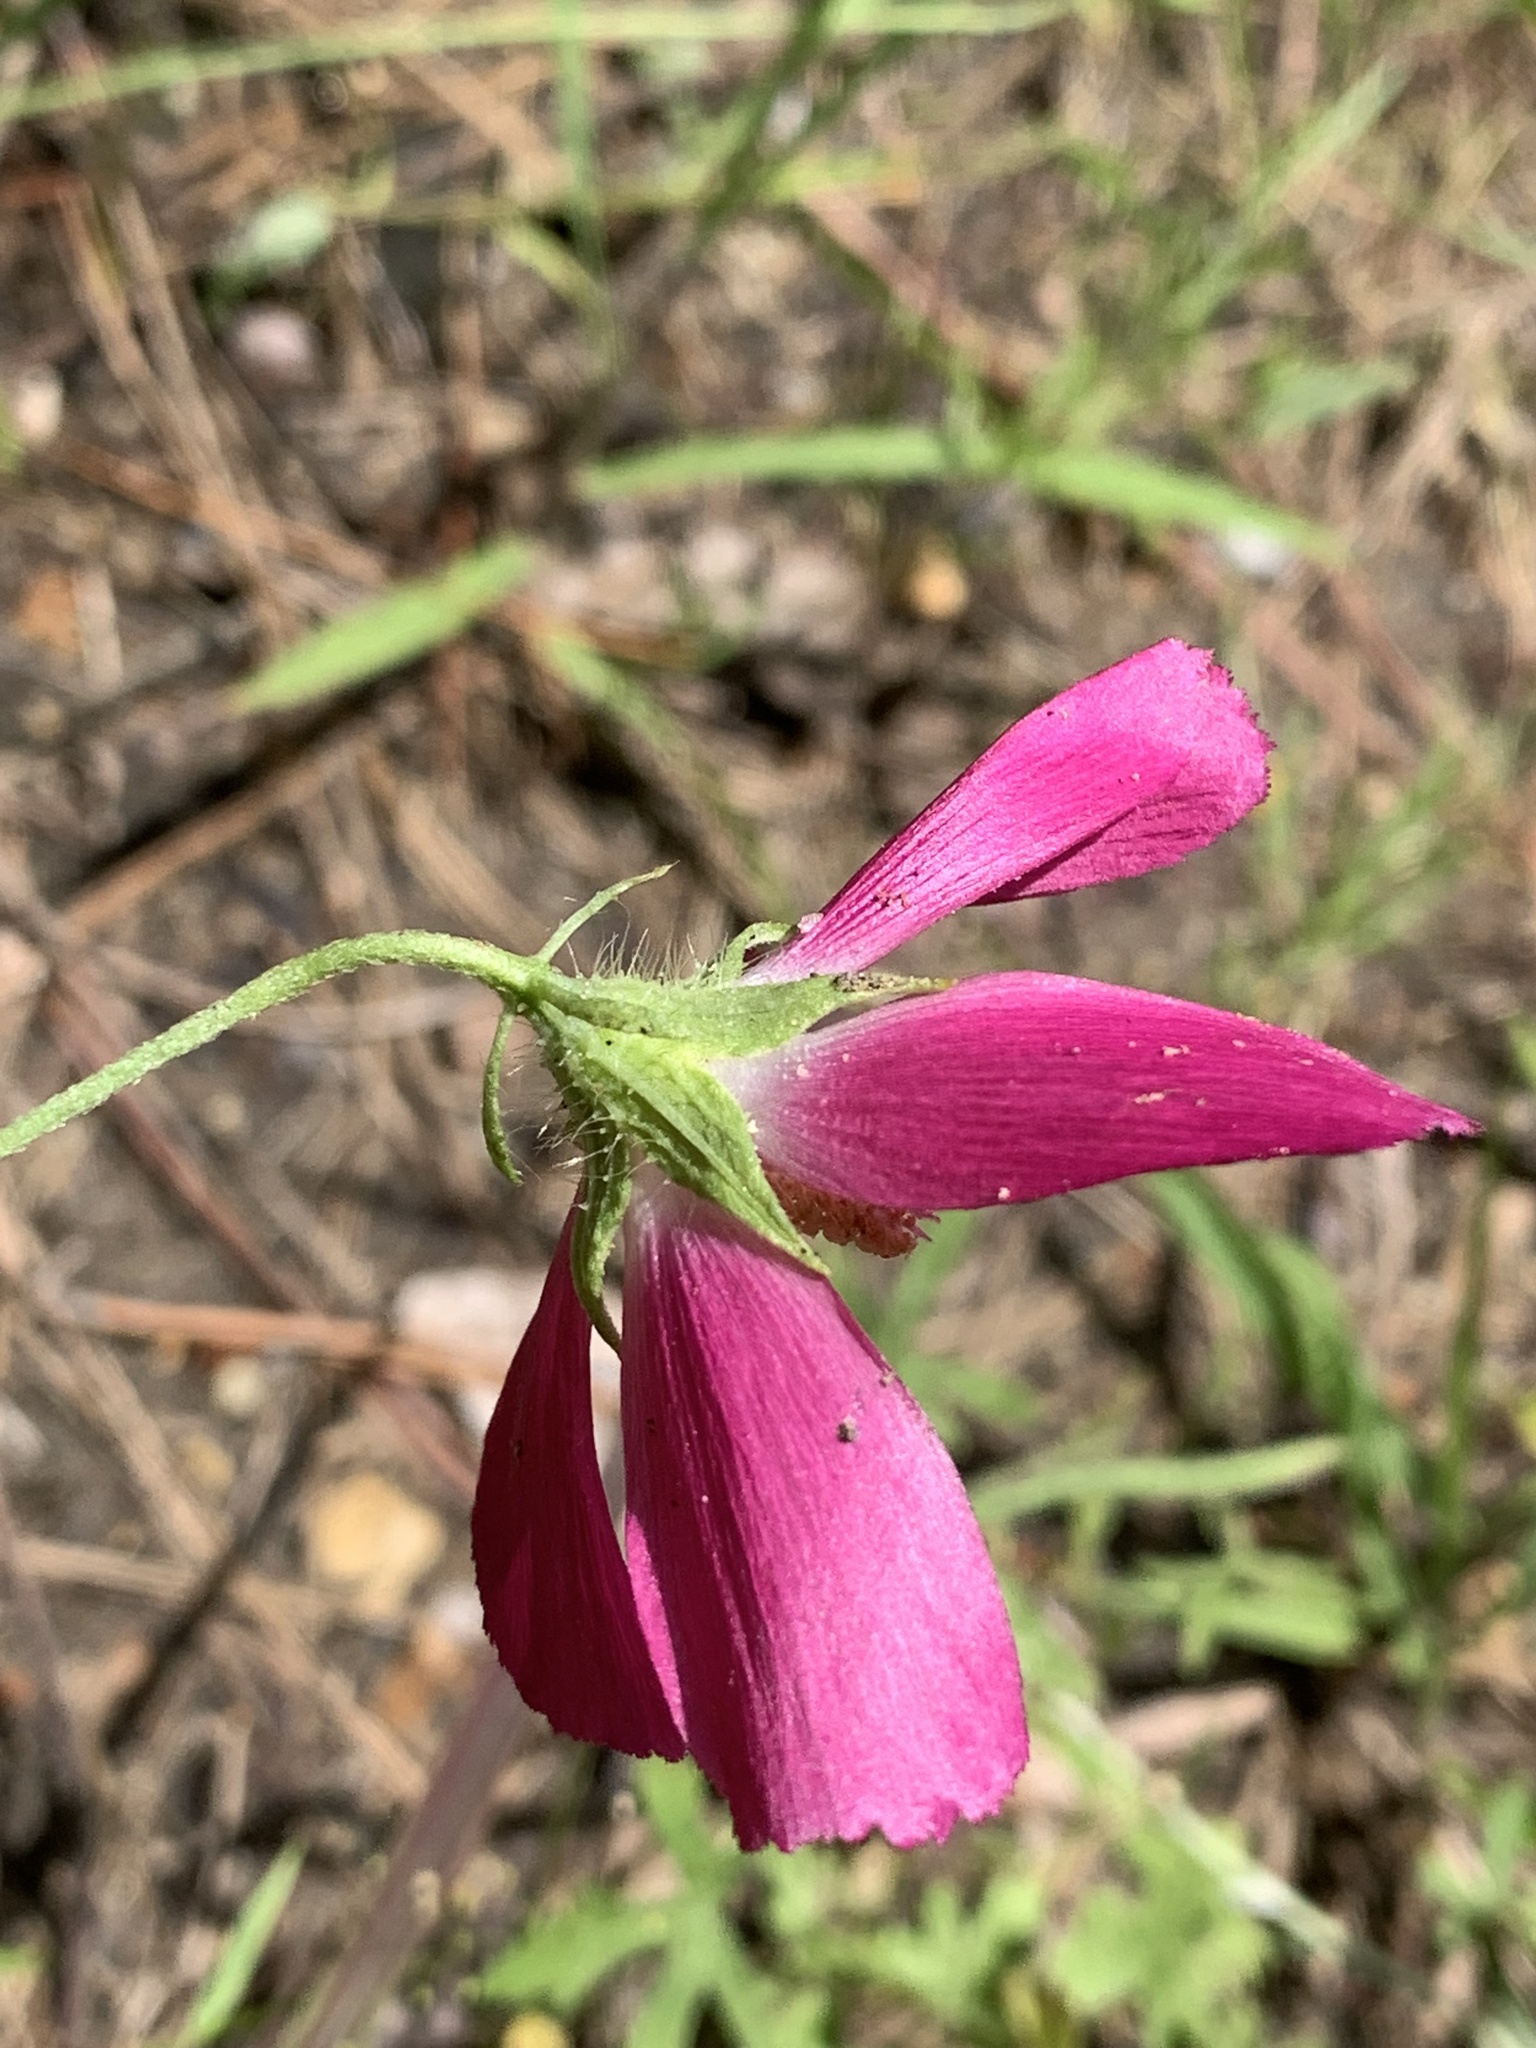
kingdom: Plantae
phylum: Tracheophyta
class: Magnoliopsida
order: Malvales
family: Malvaceae
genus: Callirhoe
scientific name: Callirhoe papaver
